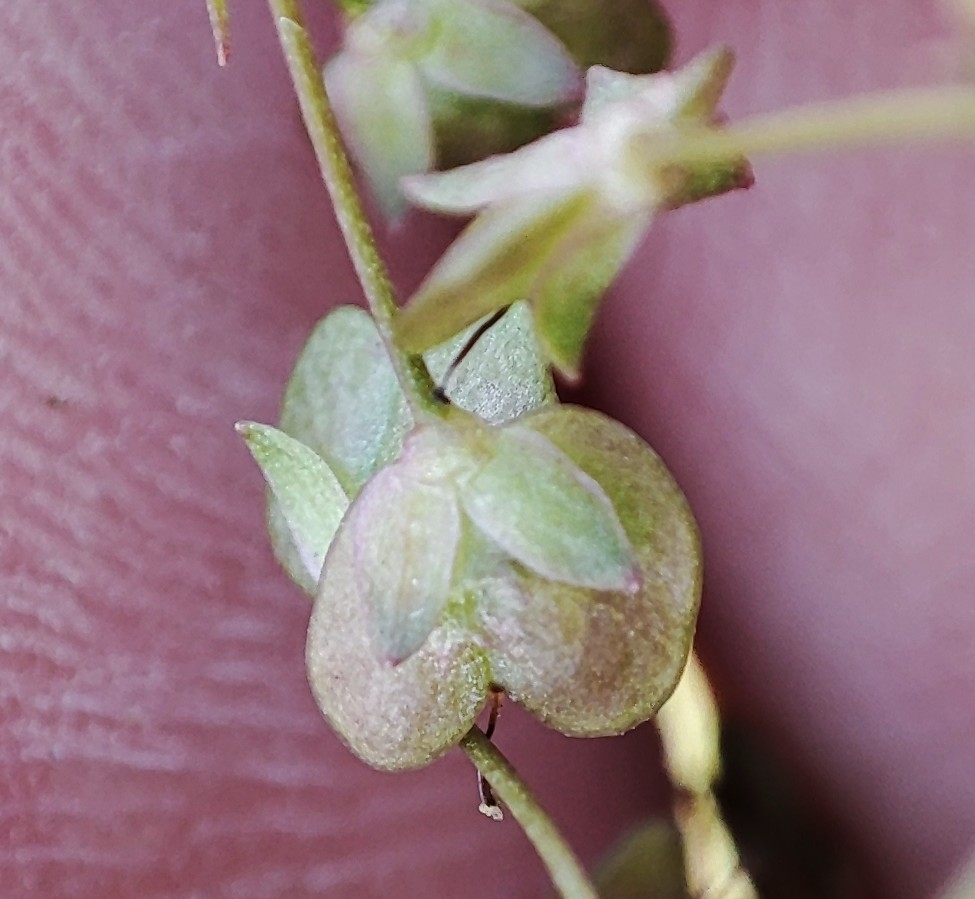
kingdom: Plantae
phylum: Tracheophyta
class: Magnoliopsida
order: Lamiales
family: Plantaginaceae
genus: Veronica
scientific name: Veronica scutellata
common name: Marsh speedwell
